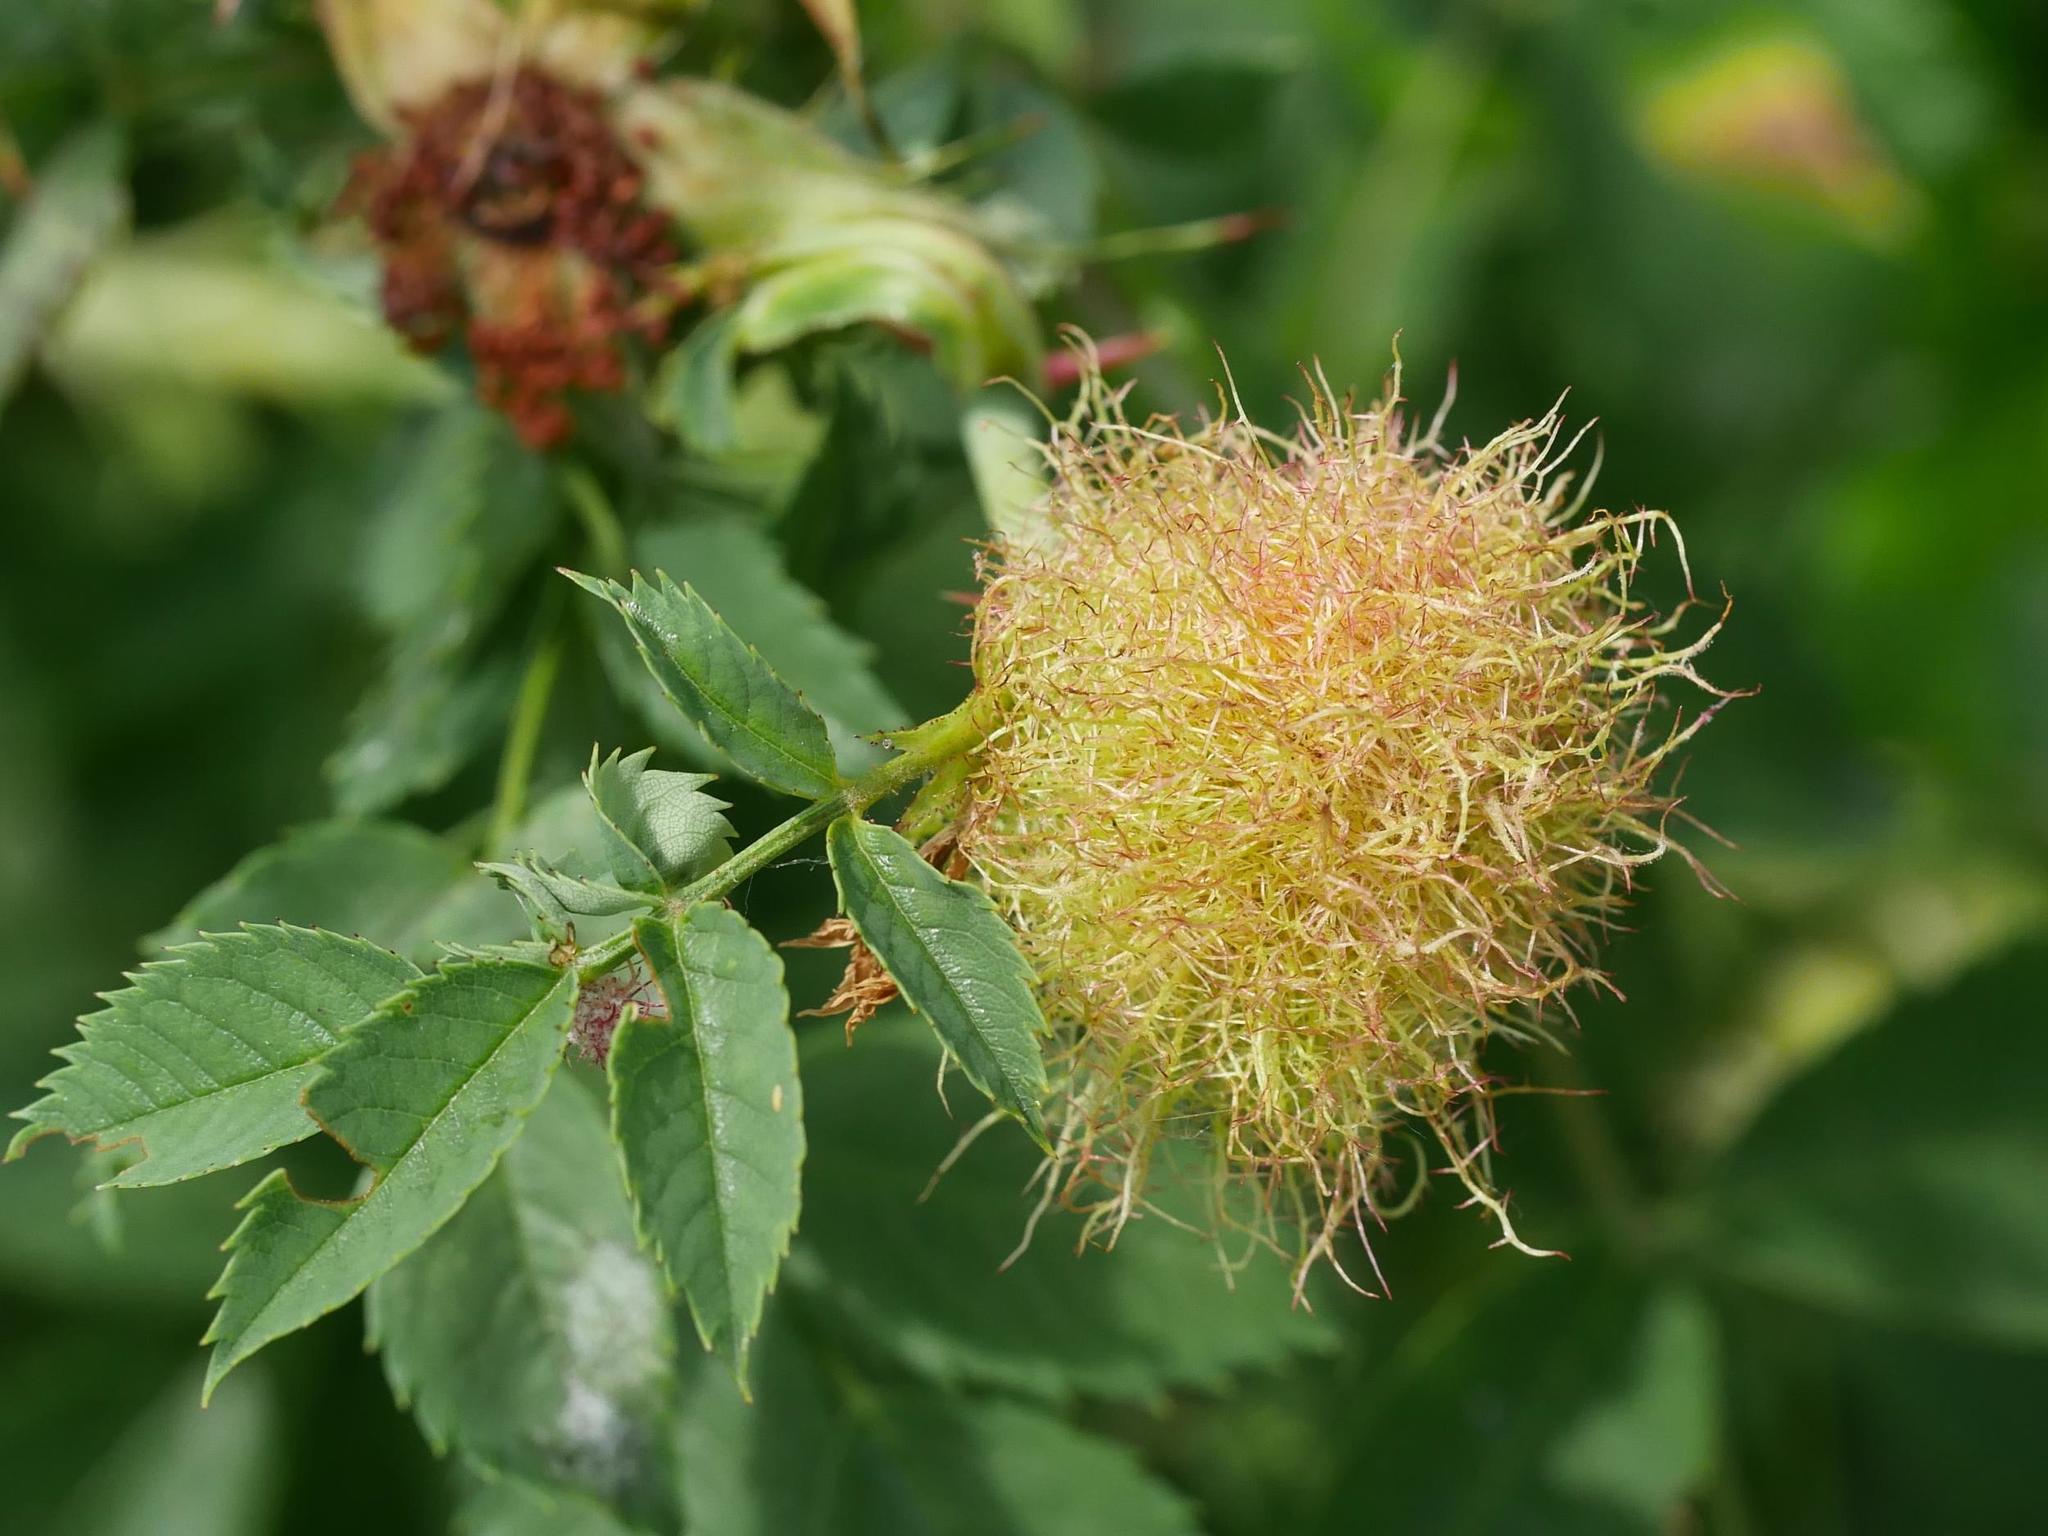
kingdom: Animalia
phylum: Arthropoda
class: Insecta
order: Hymenoptera
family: Cynipidae
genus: Diplolepis
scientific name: Diplolepis rosae
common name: Bedeguar gall
